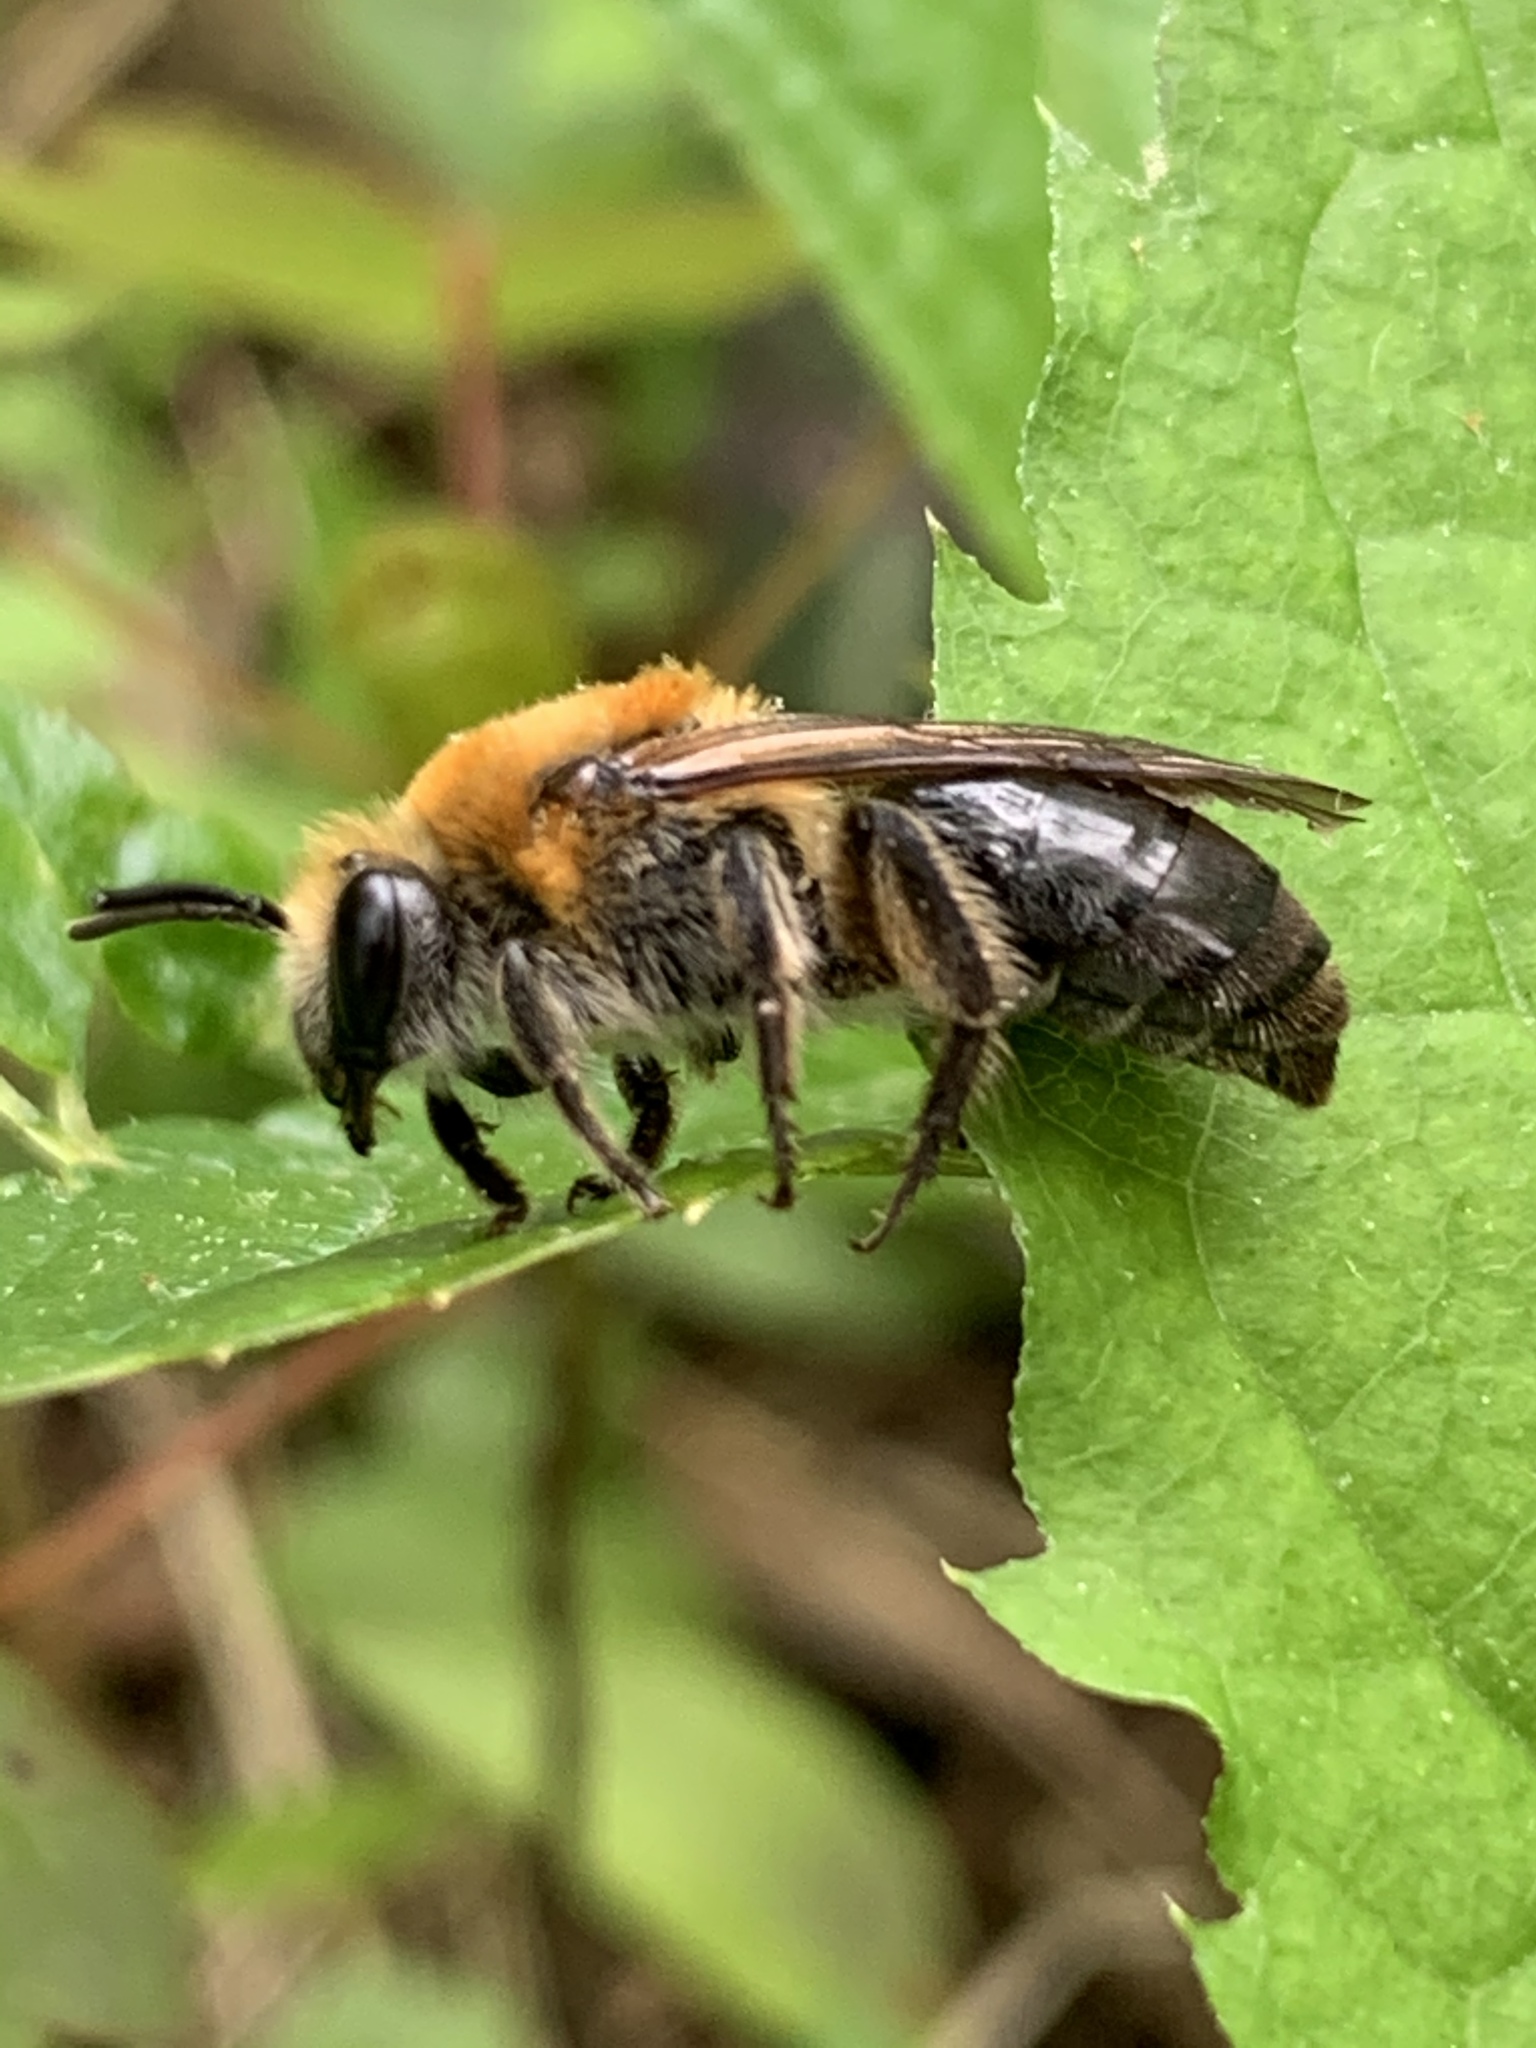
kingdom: Animalia
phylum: Arthropoda
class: Insecta
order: Hymenoptera
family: Colletidae
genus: Colletes
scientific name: Colletes thoracicus
